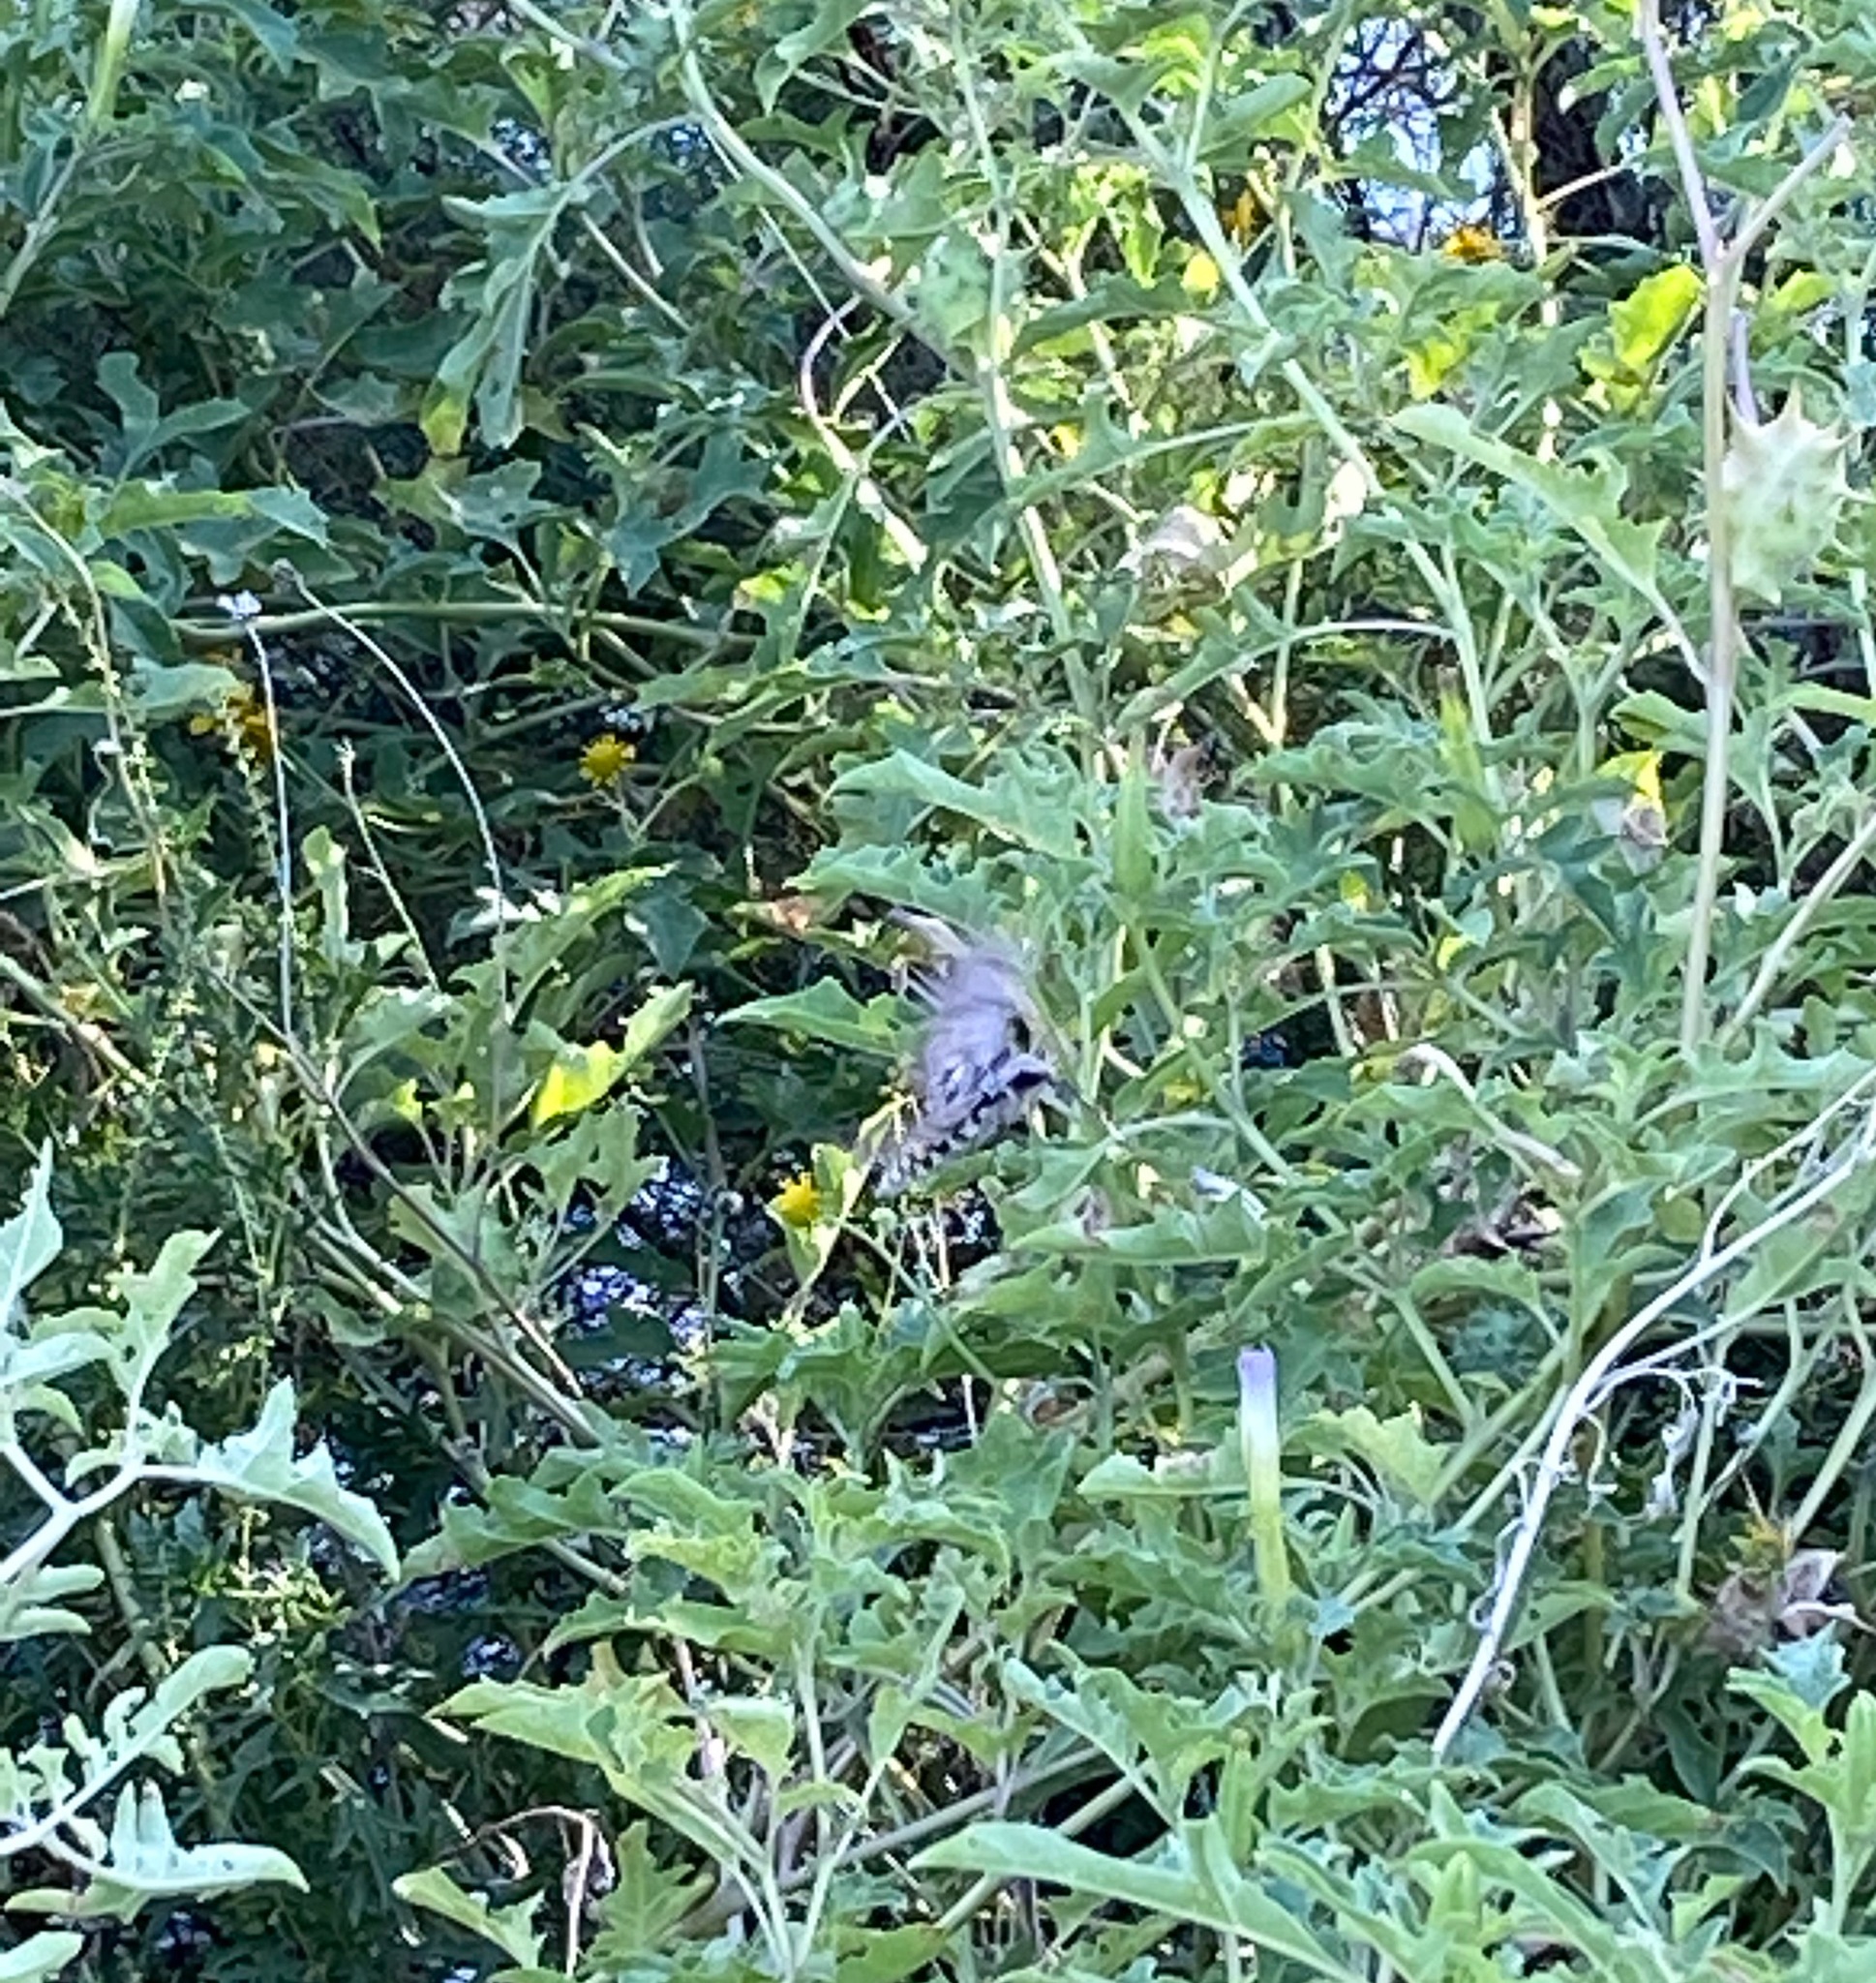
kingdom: Animalia
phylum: Arthropoda
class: Insecta
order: Lepidoptera
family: Sphingidae
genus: Manduca
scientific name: Manduca quinquemaculatus
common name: Five-spotted hawk-moth
